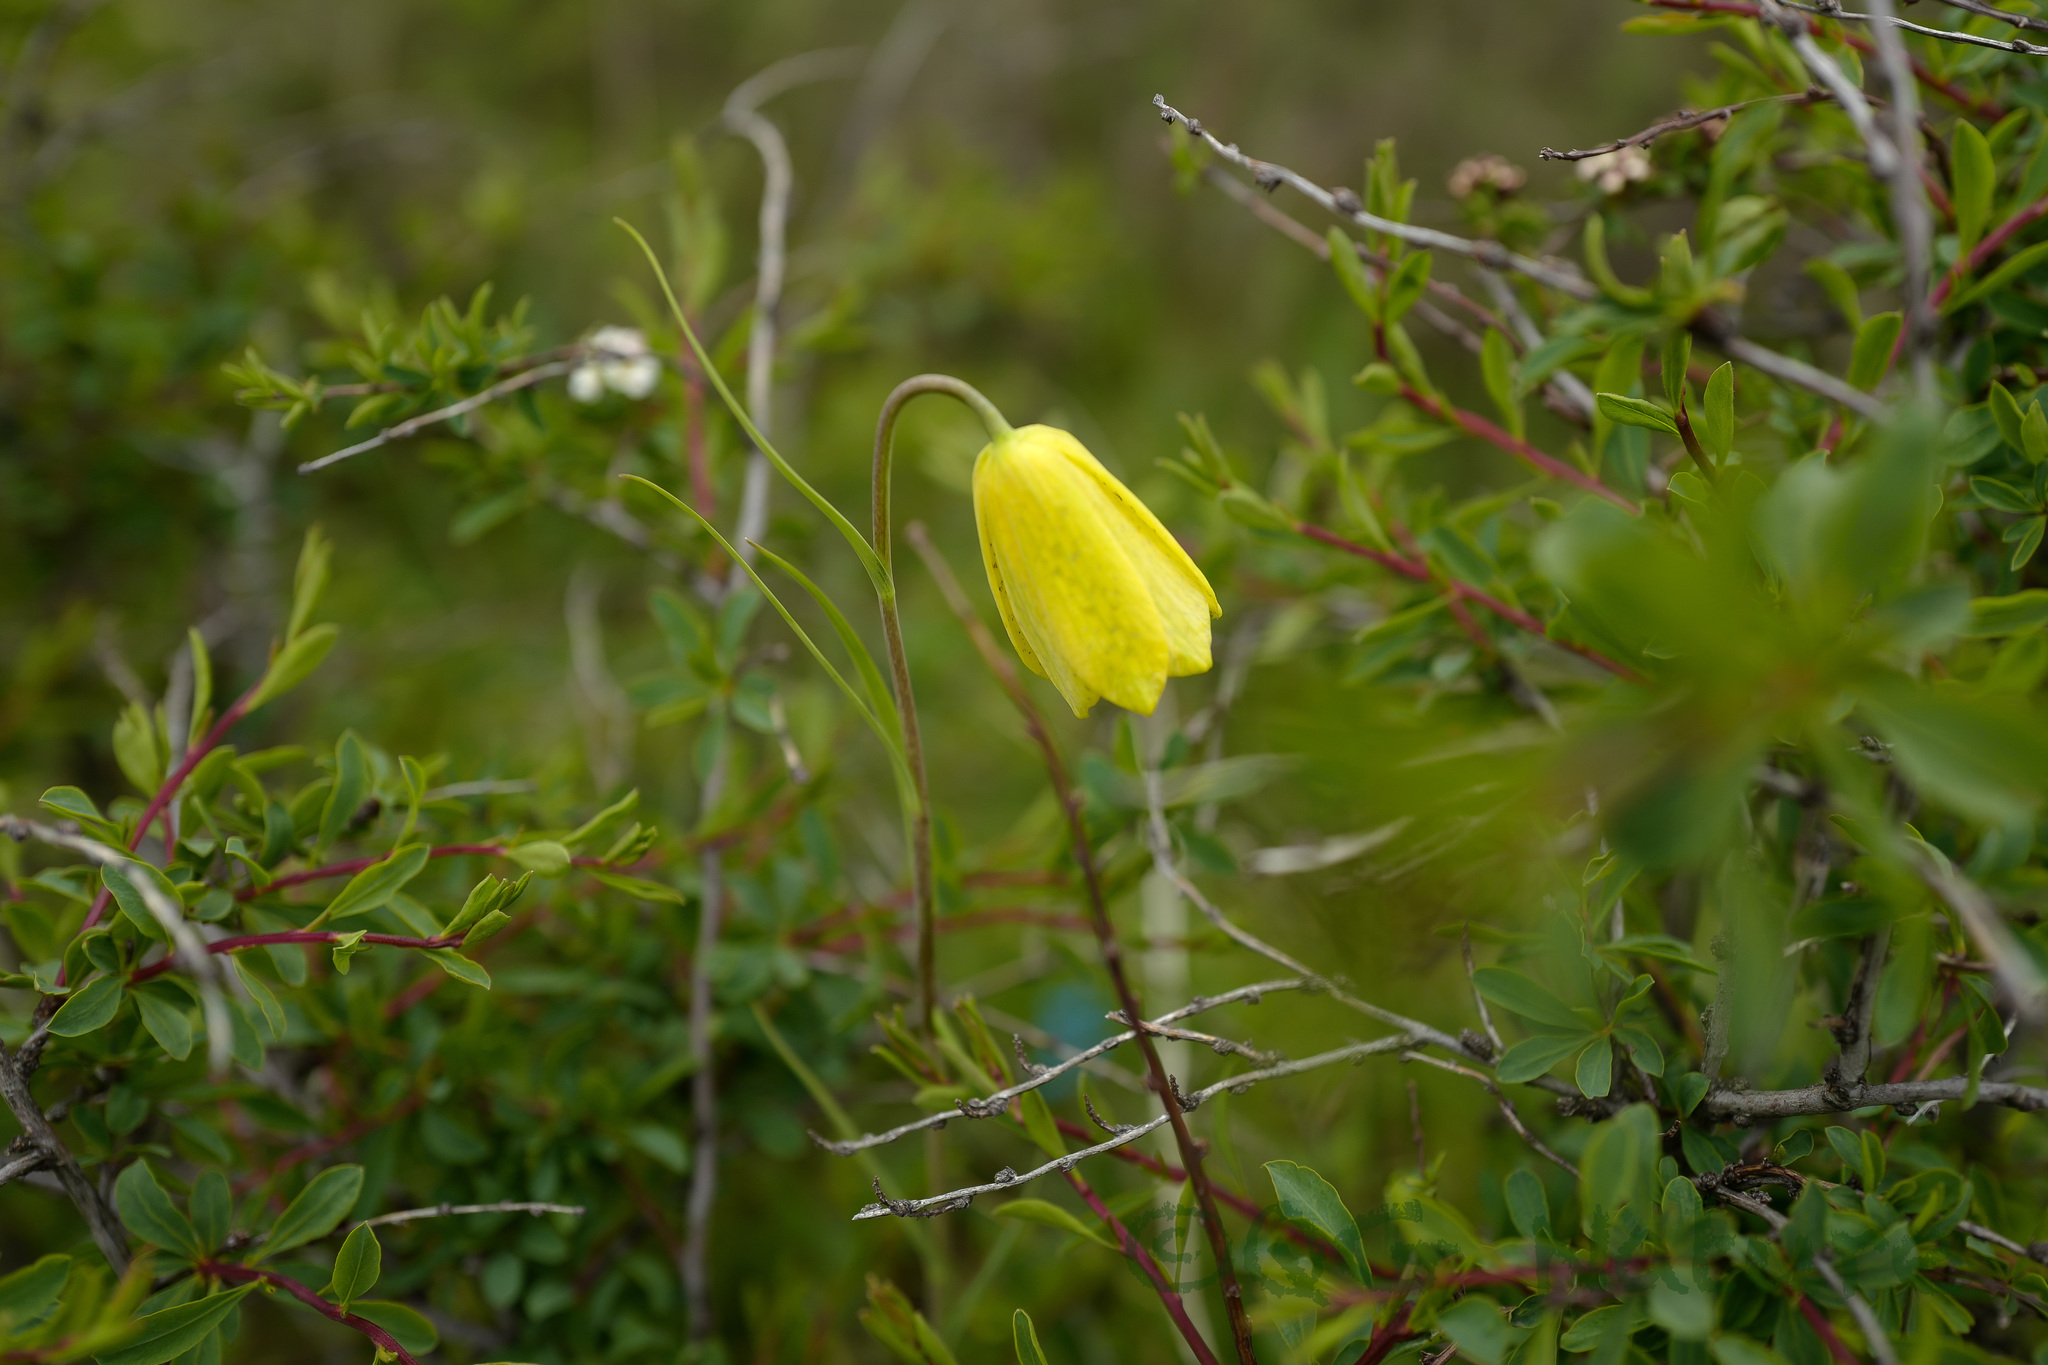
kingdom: Plantae
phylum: Tracheophyta
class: Liliopsida
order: Liliales
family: Liliaceae
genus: Fritillaria
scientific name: Fritillaria przewalskii
